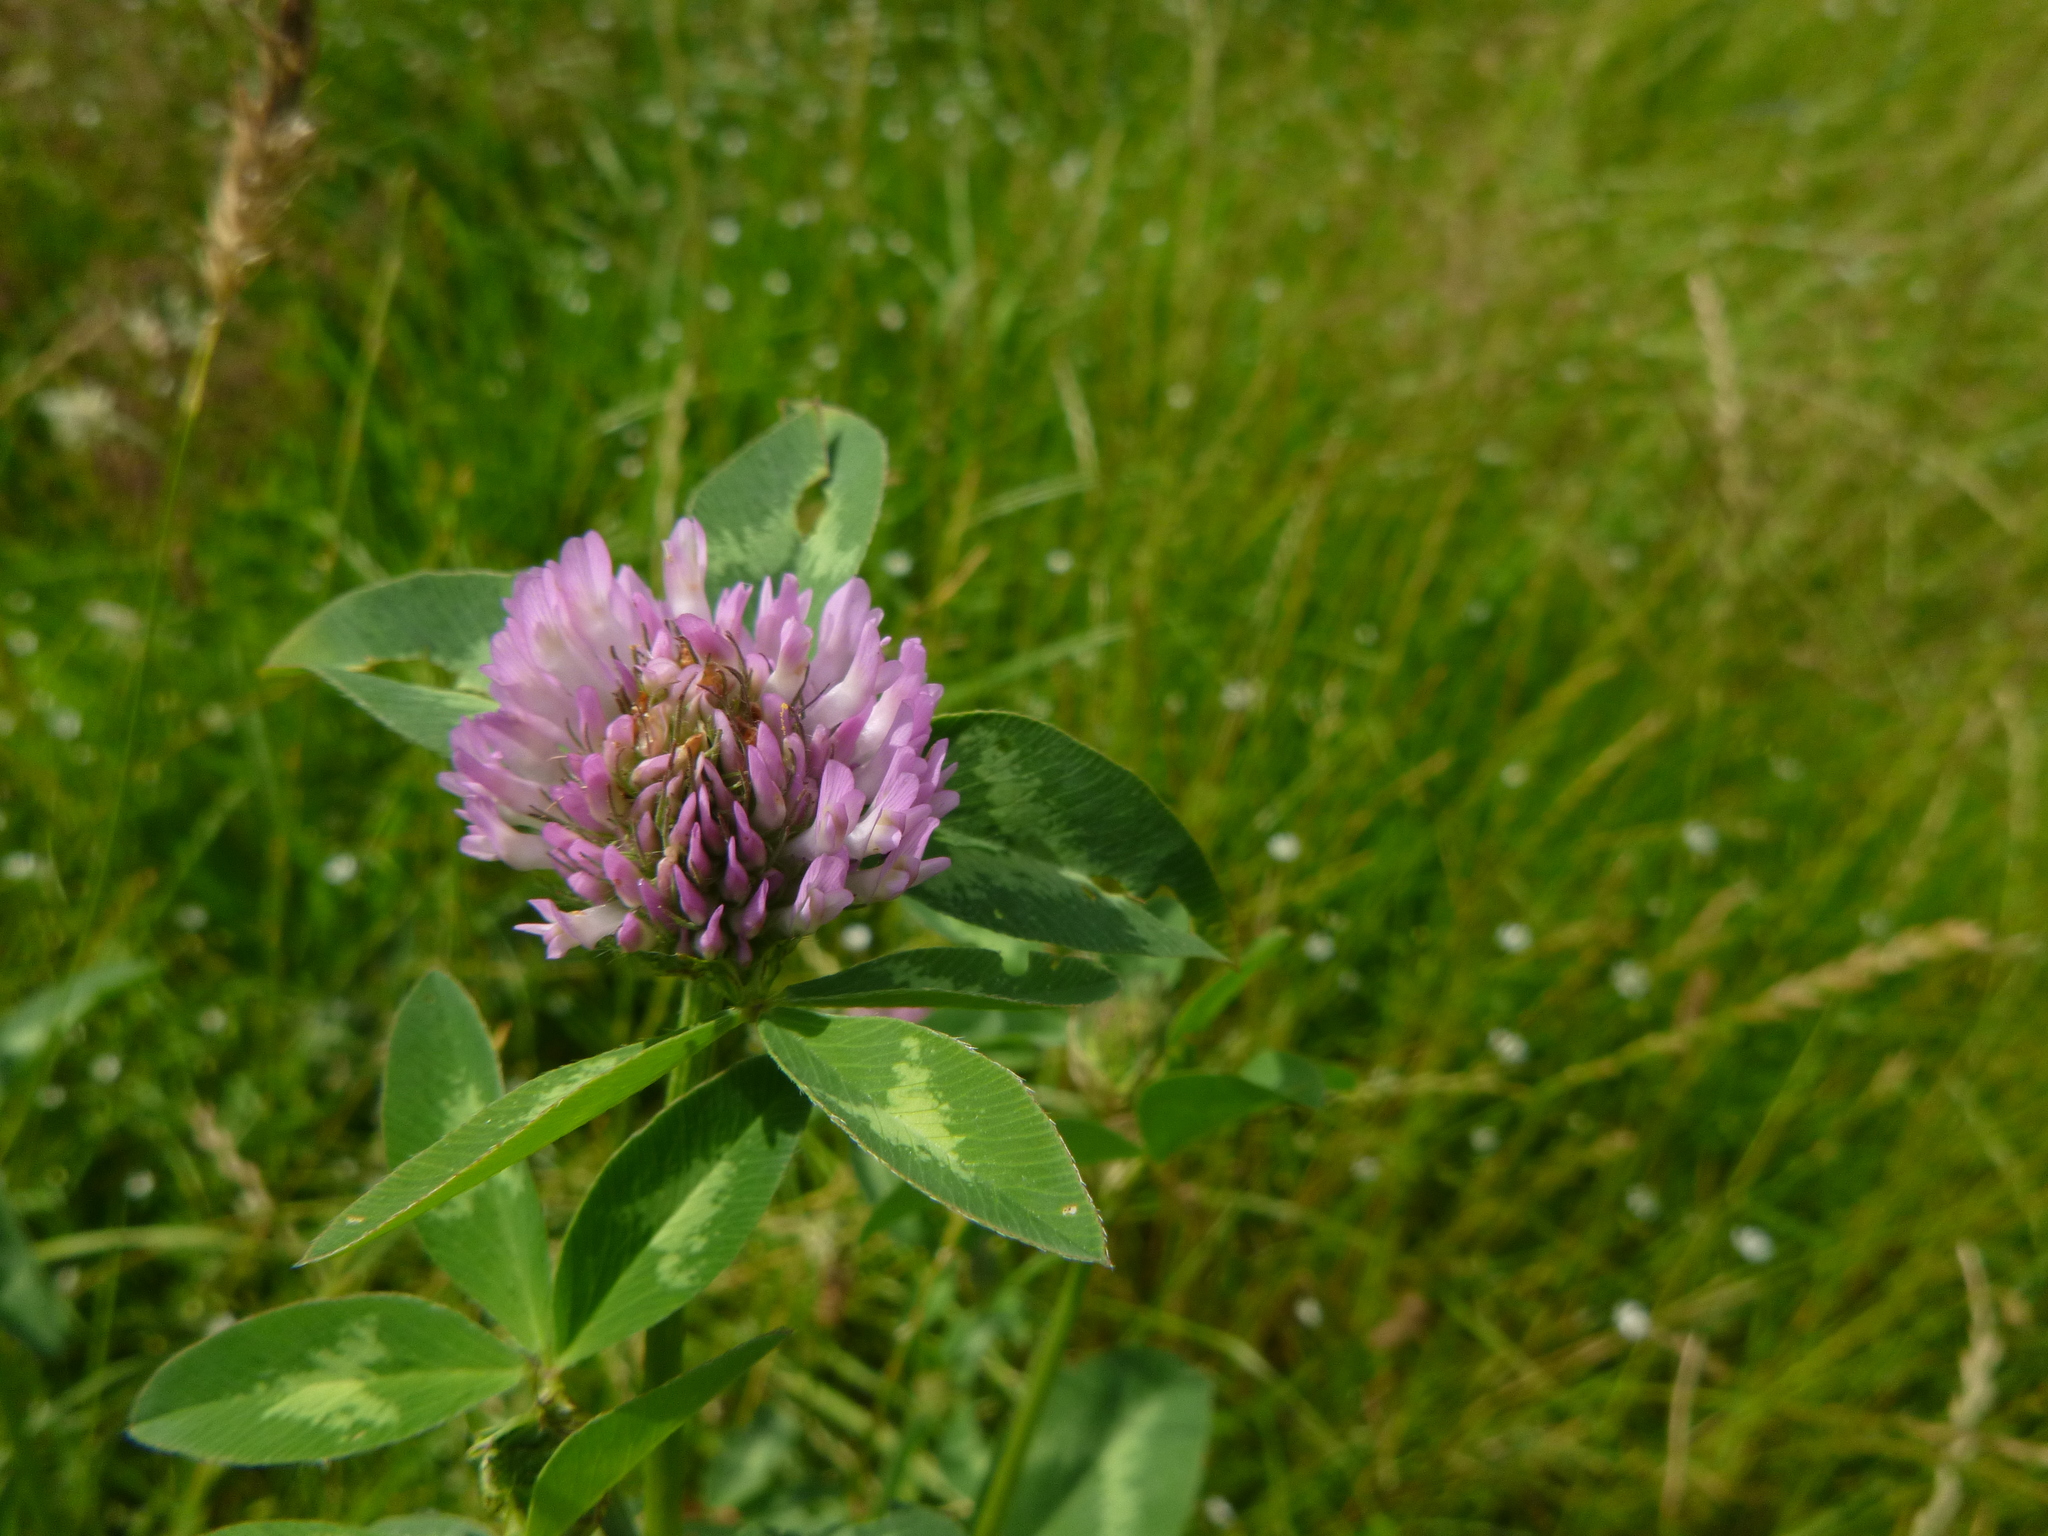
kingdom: Plantae
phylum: Tracheophyta
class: Magnoliopsida
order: Fabales
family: Fabaceae
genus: Trifolium
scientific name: Trifolium pratense
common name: Red clover
